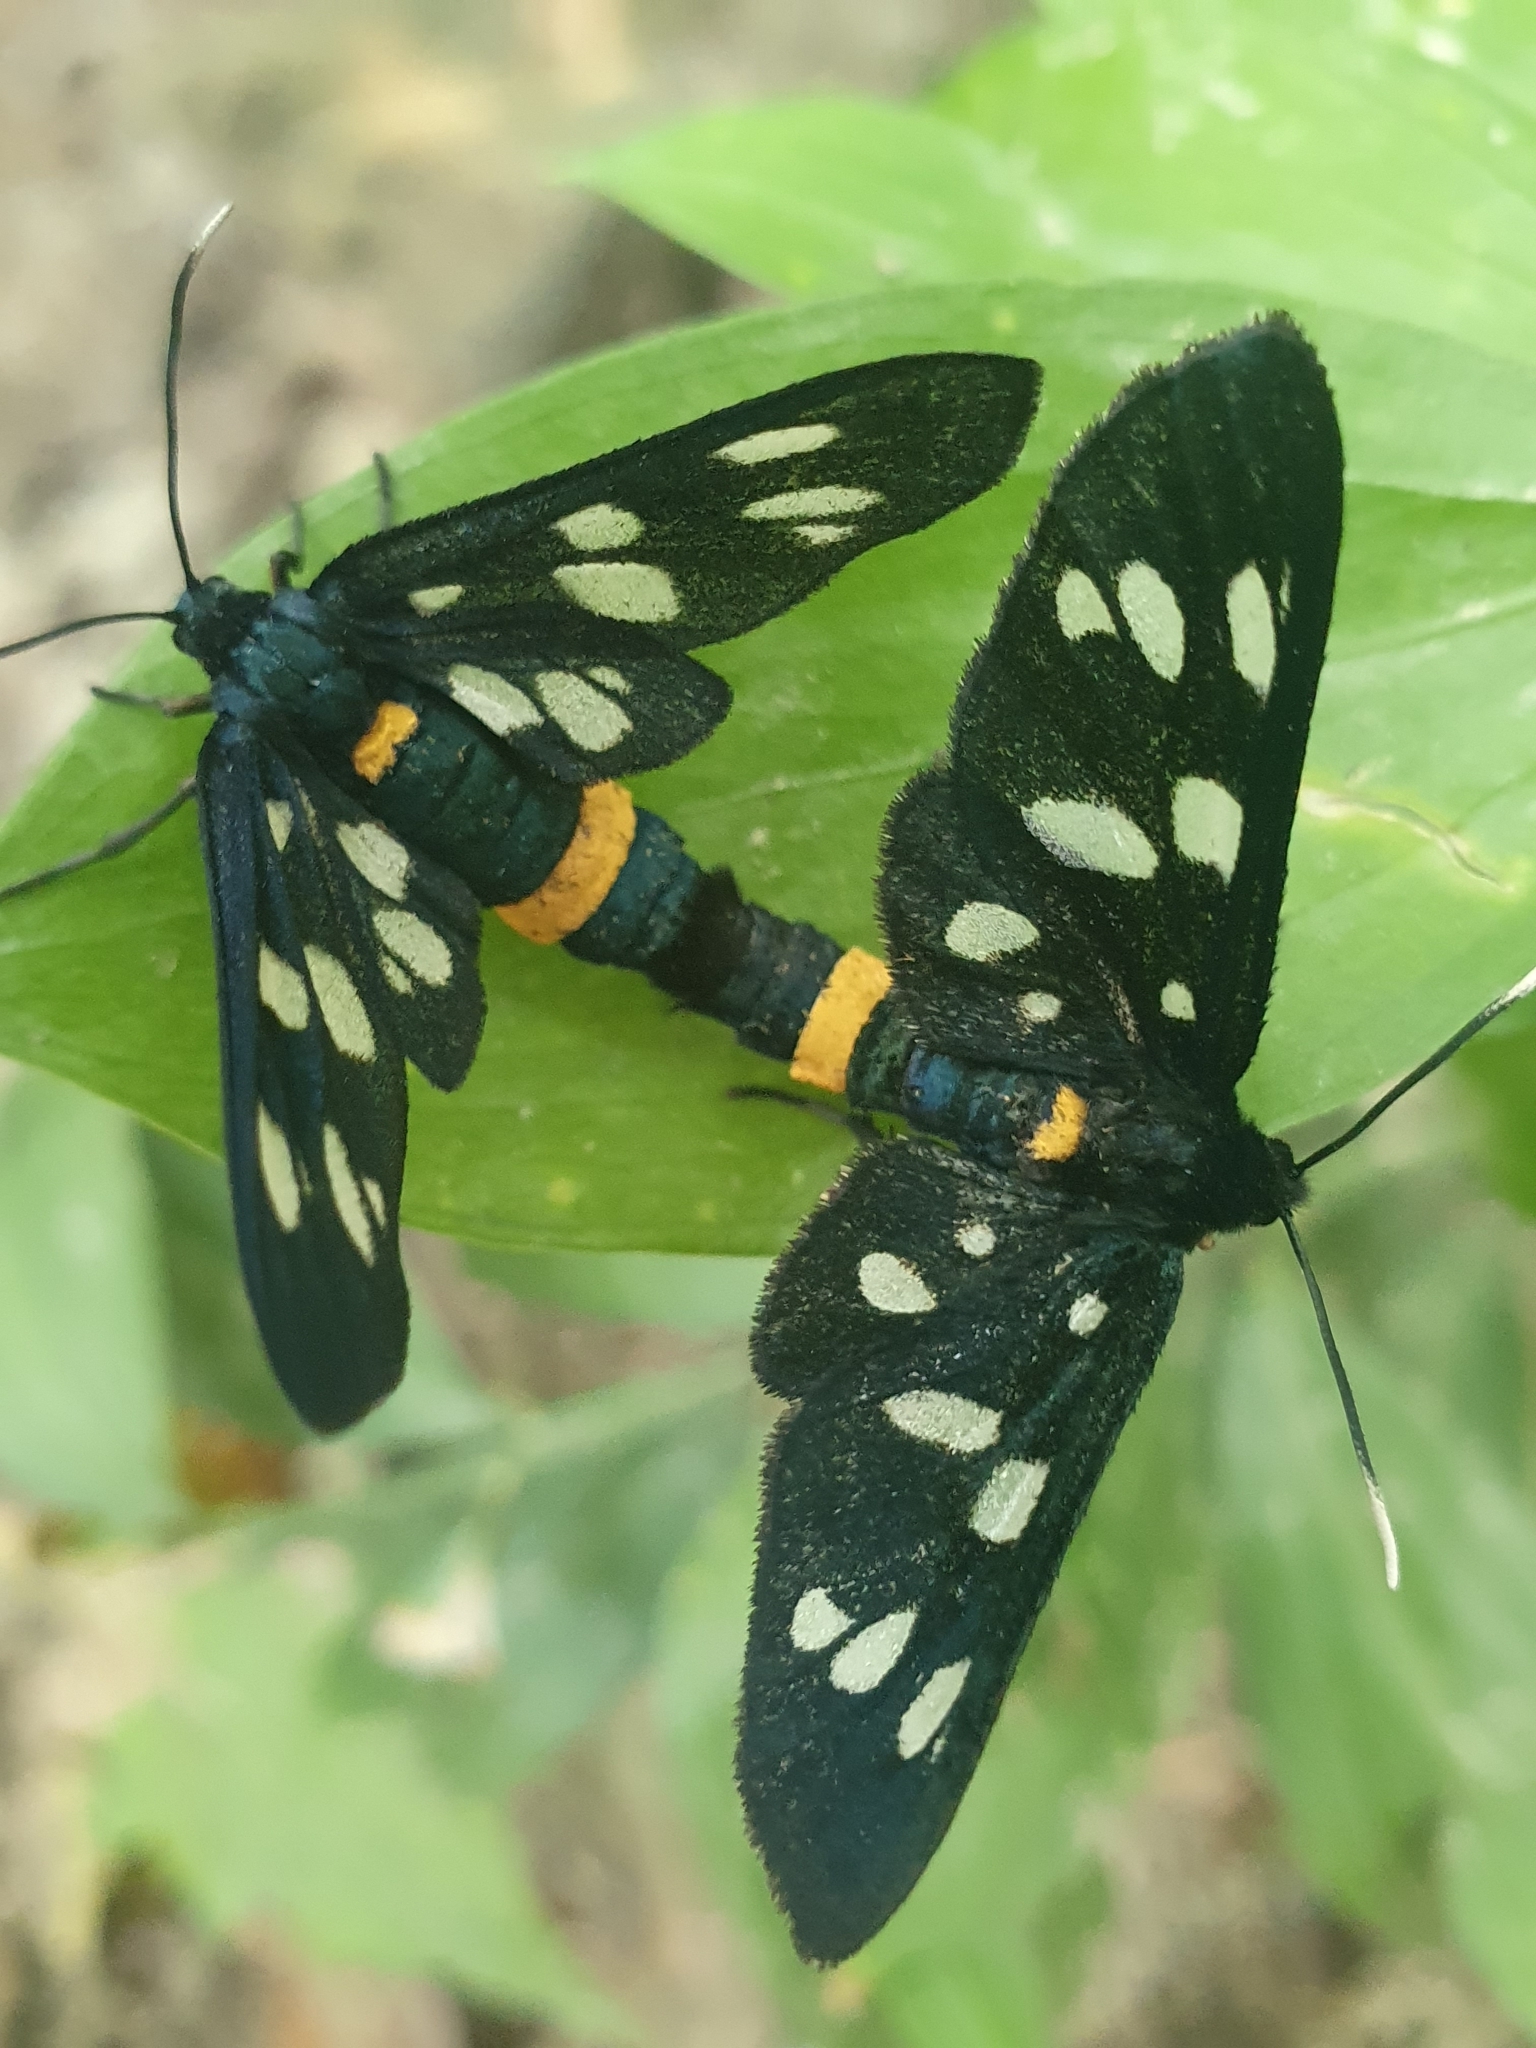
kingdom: Animalia
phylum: Arthropoda
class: Insecta
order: Lepidoptera
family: Erebidae
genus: Amata
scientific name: Amata phegea
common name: Nine-spotted
